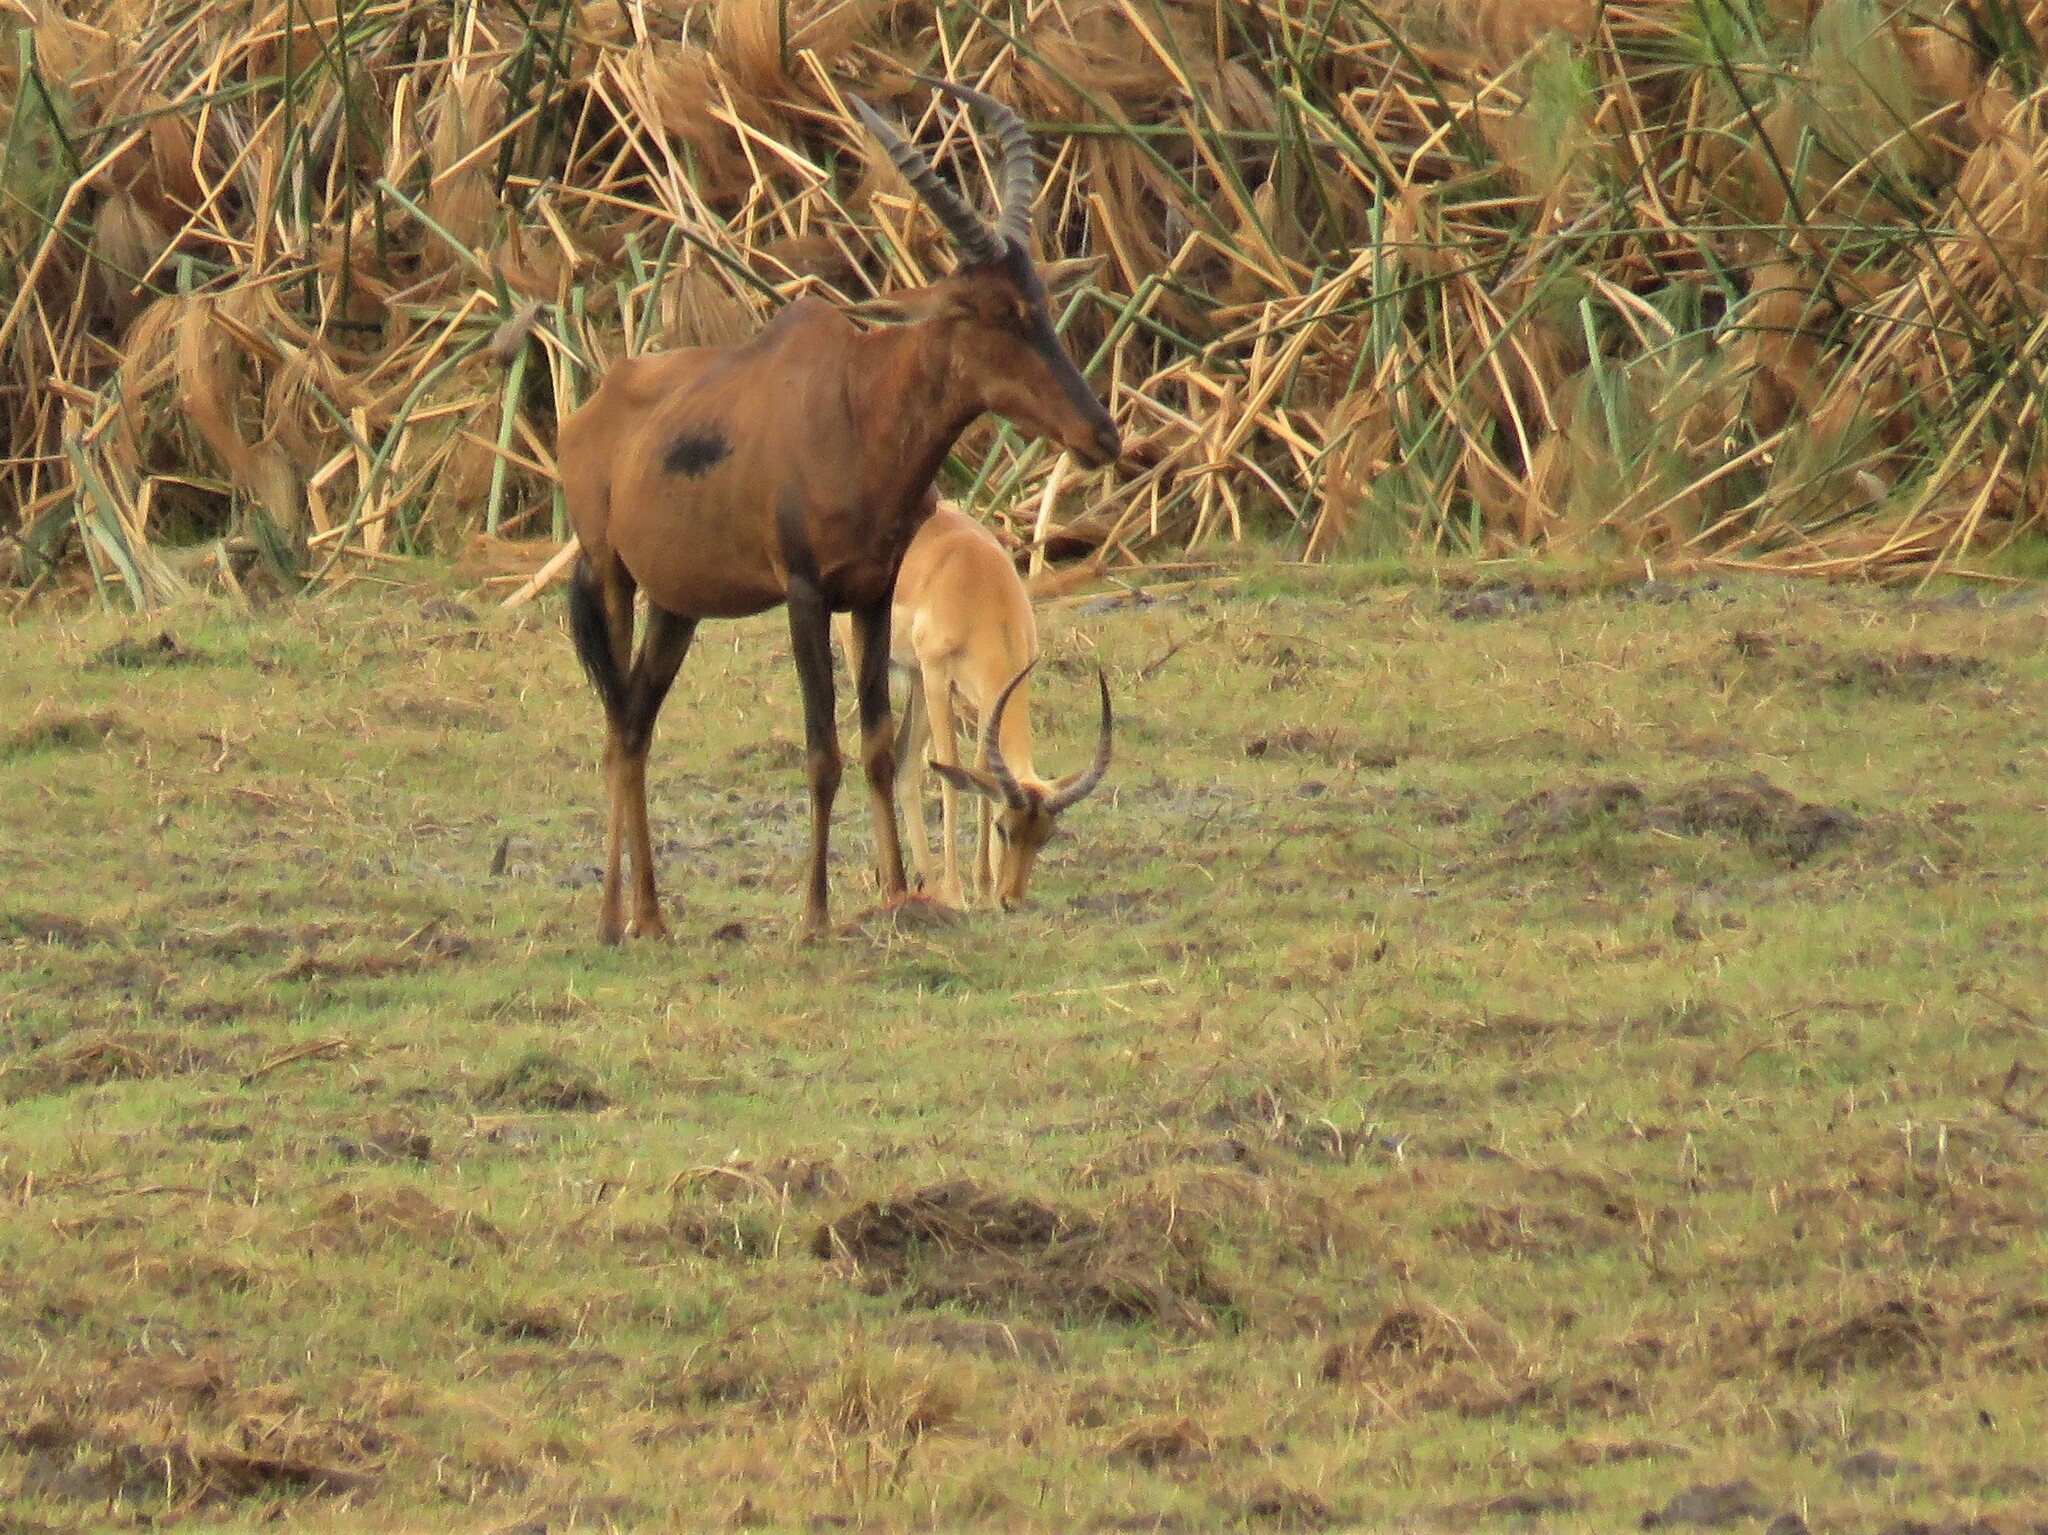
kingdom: Animalia
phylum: Chordata
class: Mammalia
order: Artiodactyla
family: Bovidae
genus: Aepyceros
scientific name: Aepyceros melampus
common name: Impala
